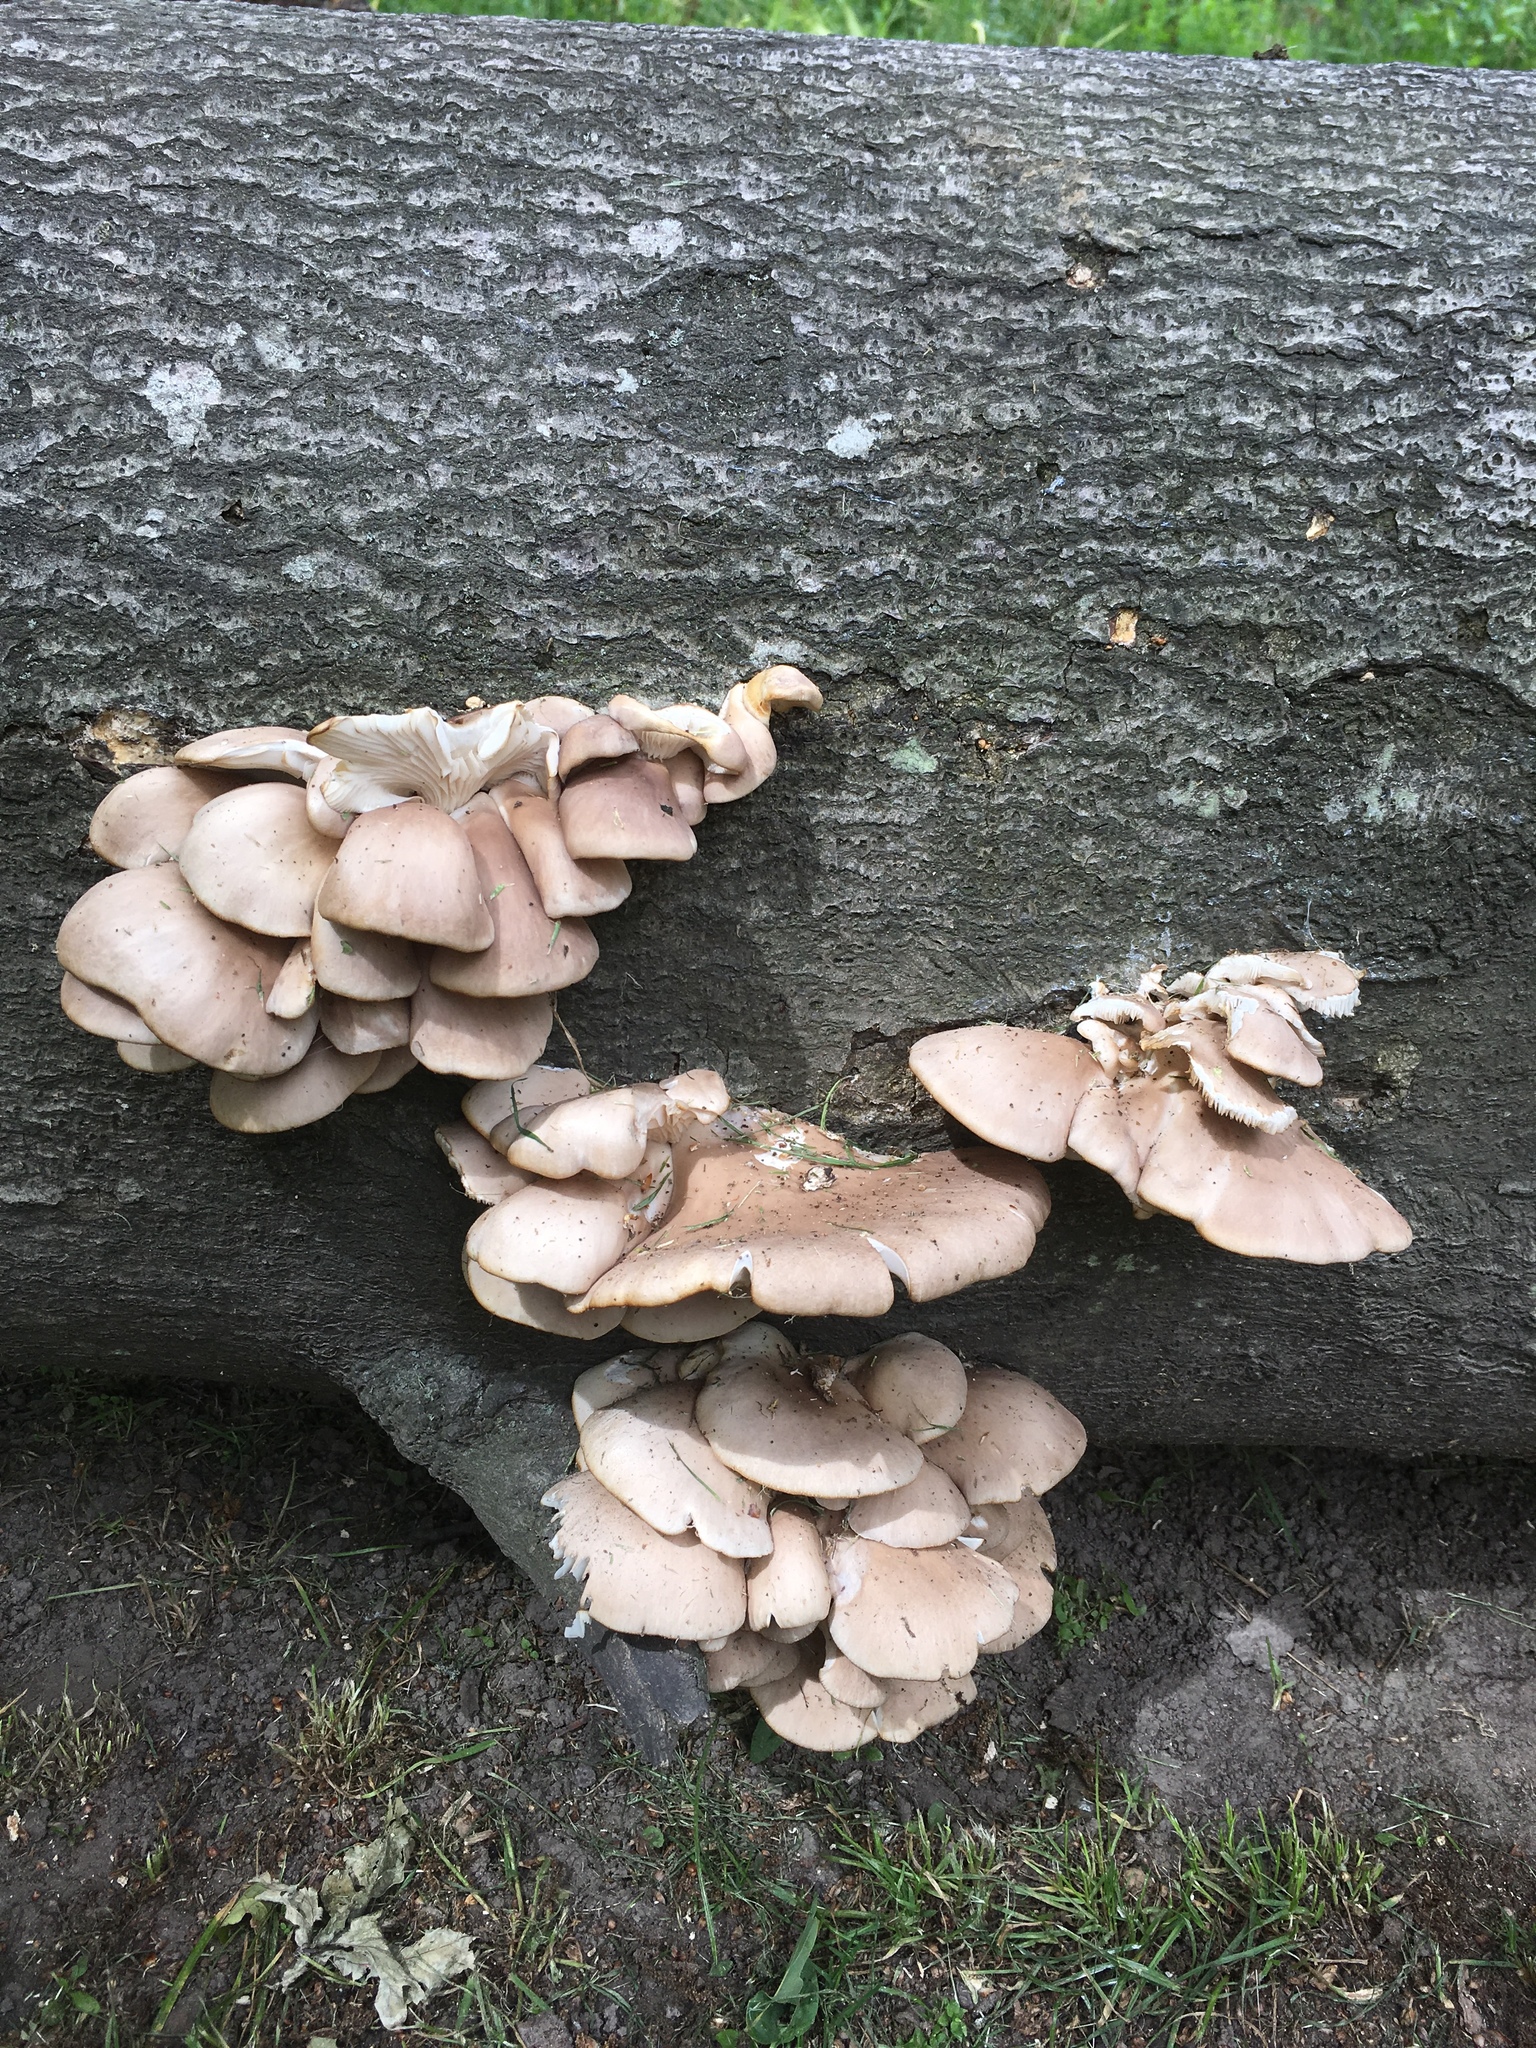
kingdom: Fungi
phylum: Basidiomycota
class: Agaricomycetes
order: Agaricales
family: Pleurotaceae
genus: Pleurotus
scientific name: Pleurotus pulmonarius
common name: Pale oyster
